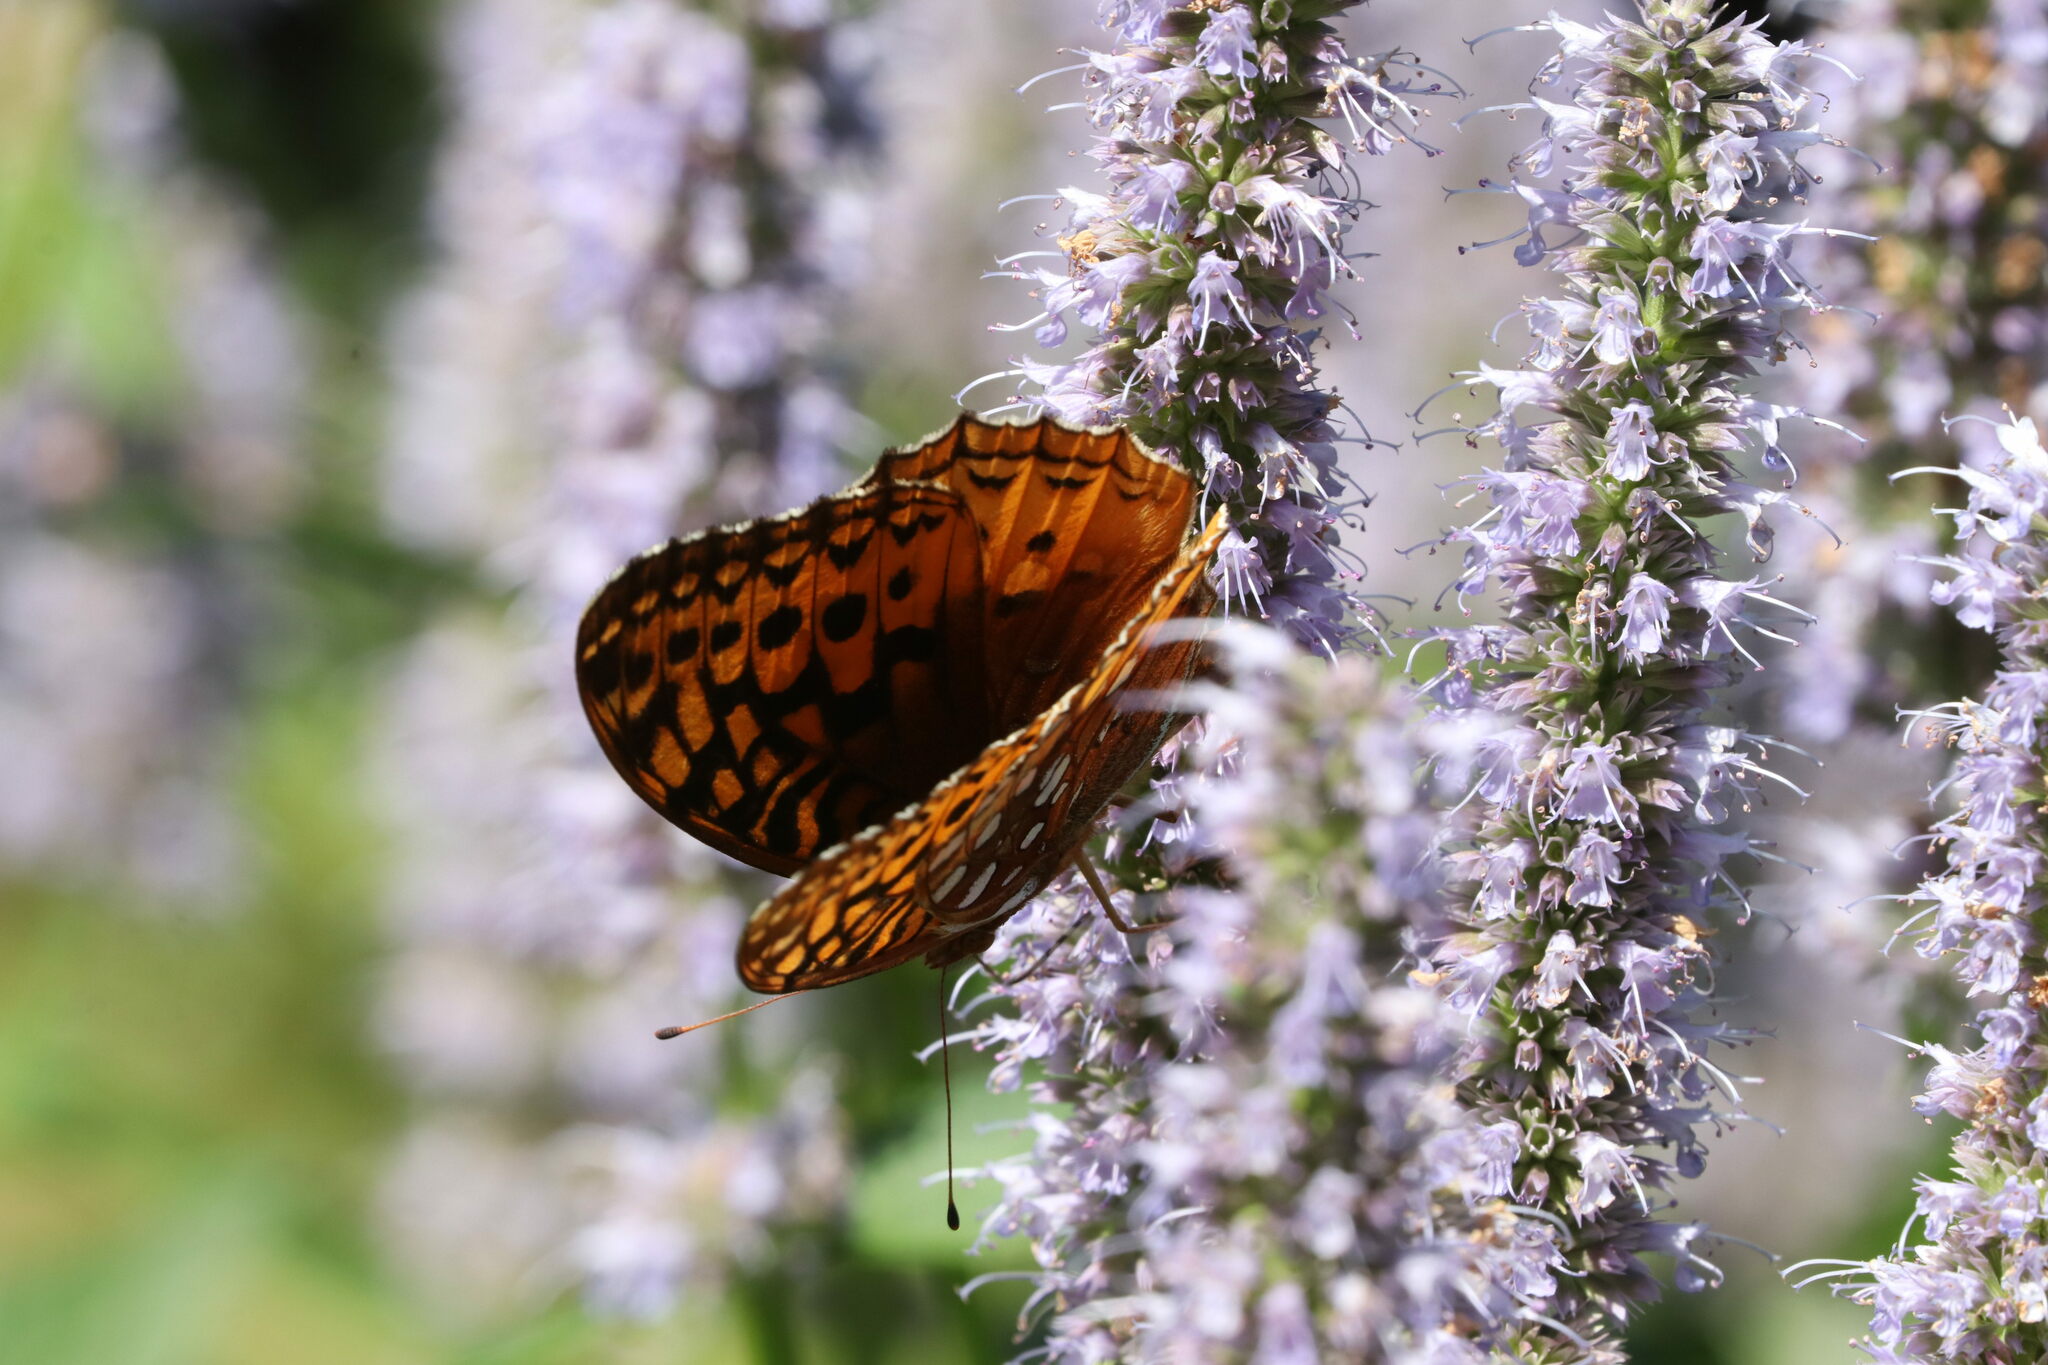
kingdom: Animalia
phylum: Arthropoda
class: Insecta
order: Lepidoptera
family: Nymphalidae
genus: Speyeria
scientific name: Speyeria cybele
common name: Great spangled fritillary
